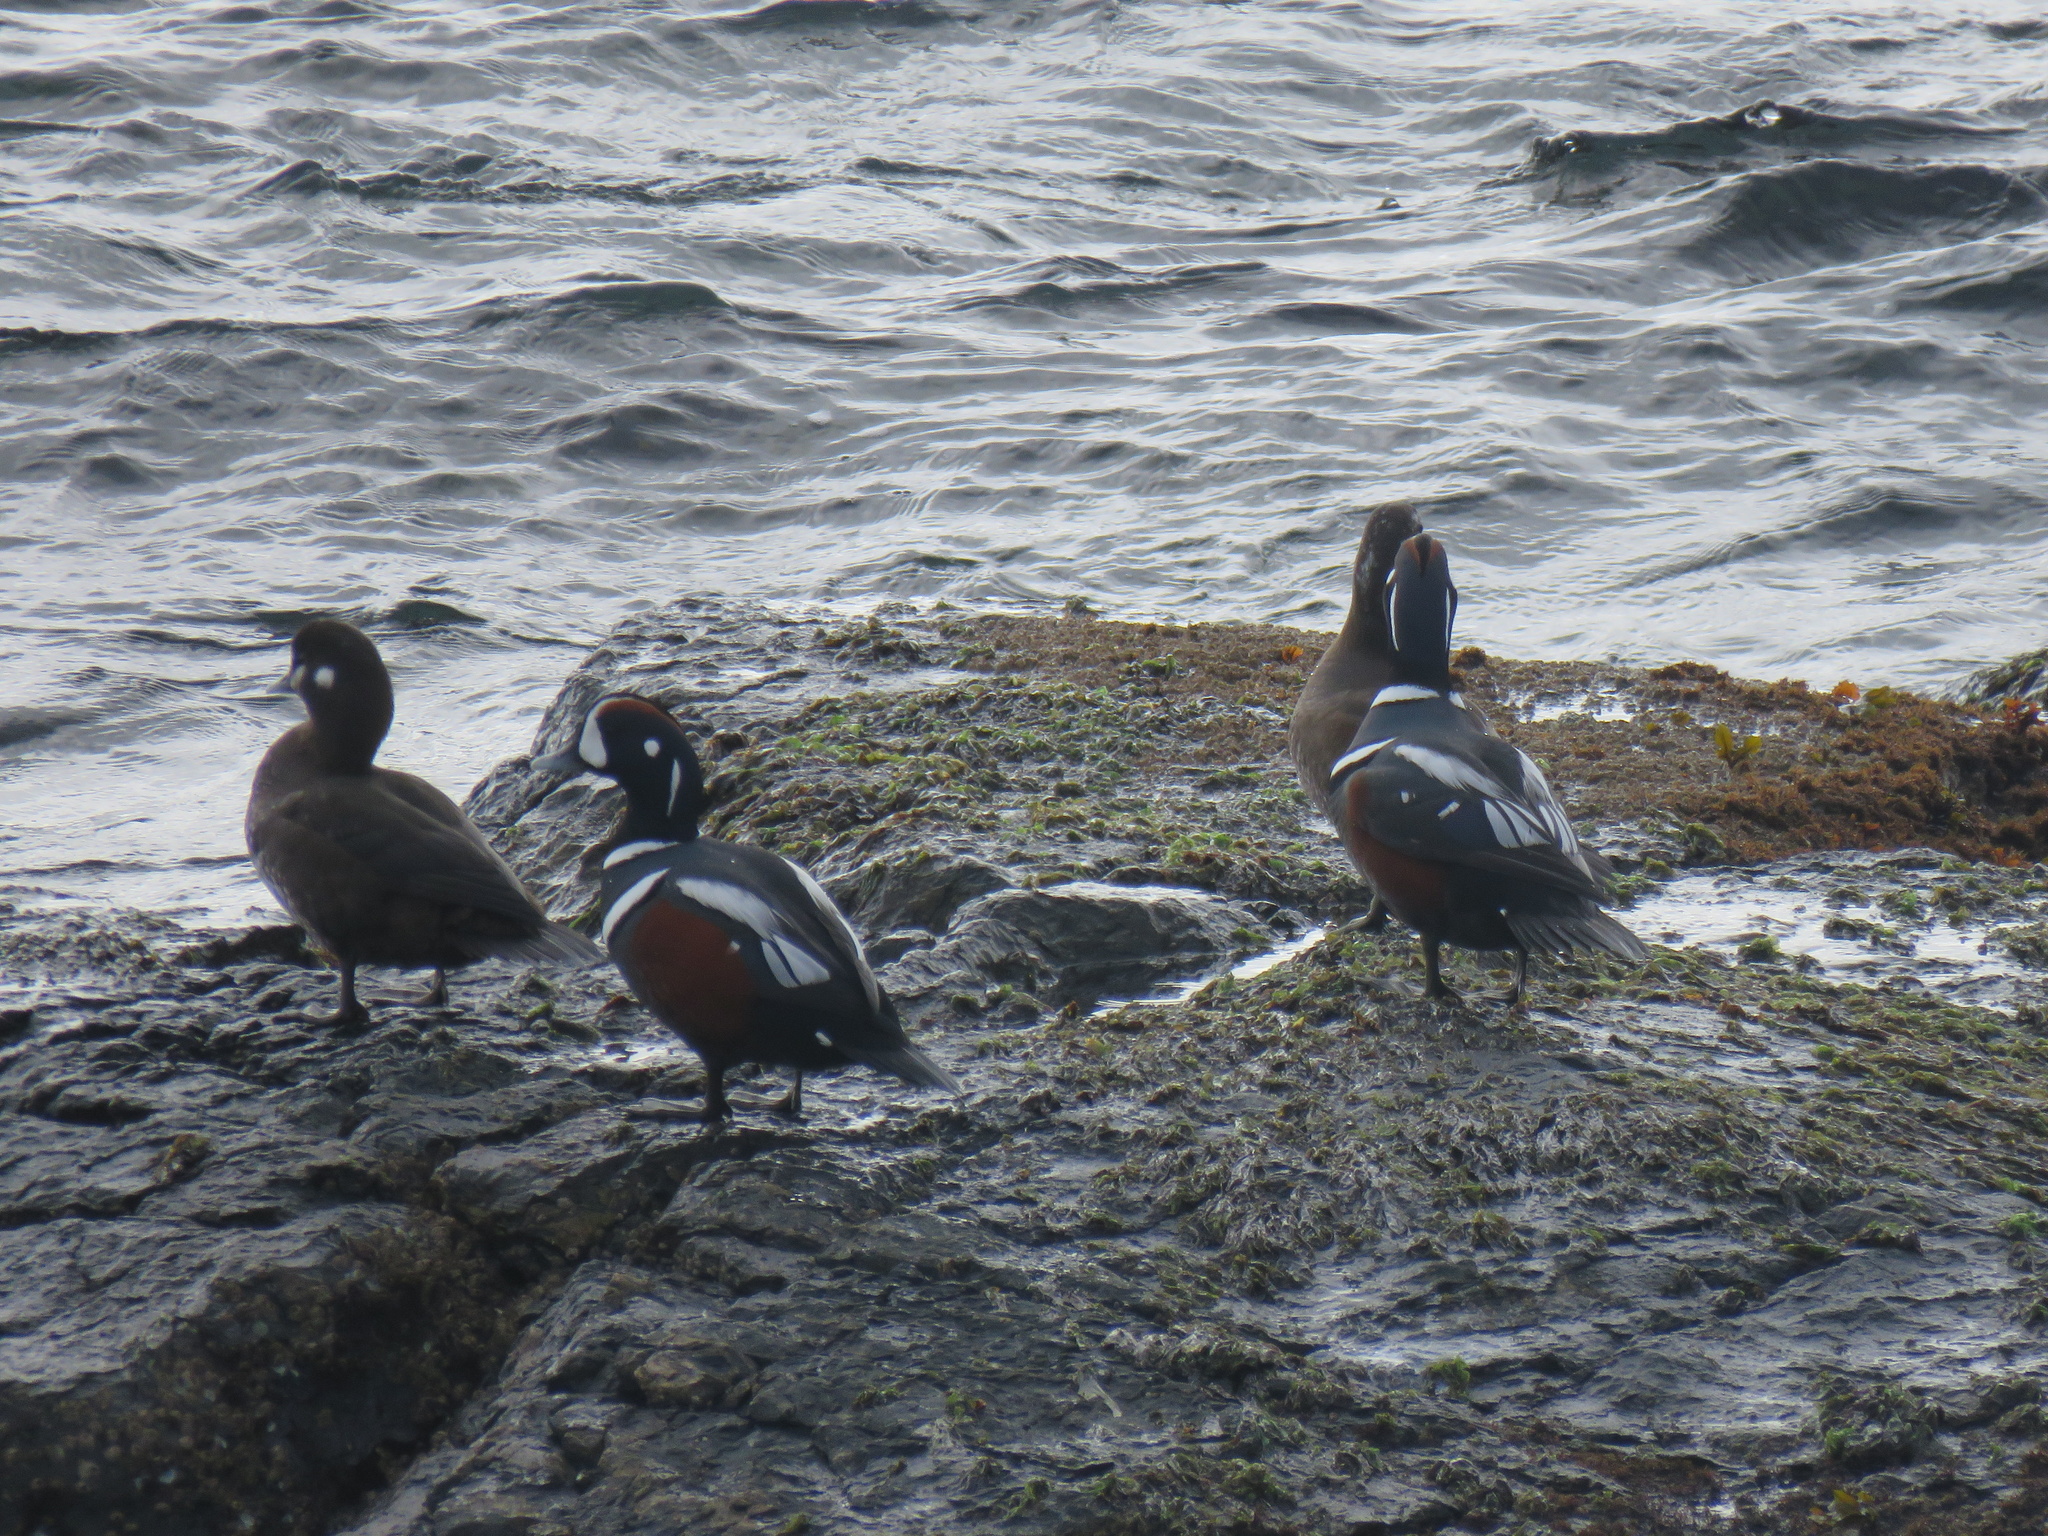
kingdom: Animalia
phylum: Chordata
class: Aves
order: Anseriformes
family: Anatidae
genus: Histrionicus
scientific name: Histrionicus histrionicus
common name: Harlequin duck
